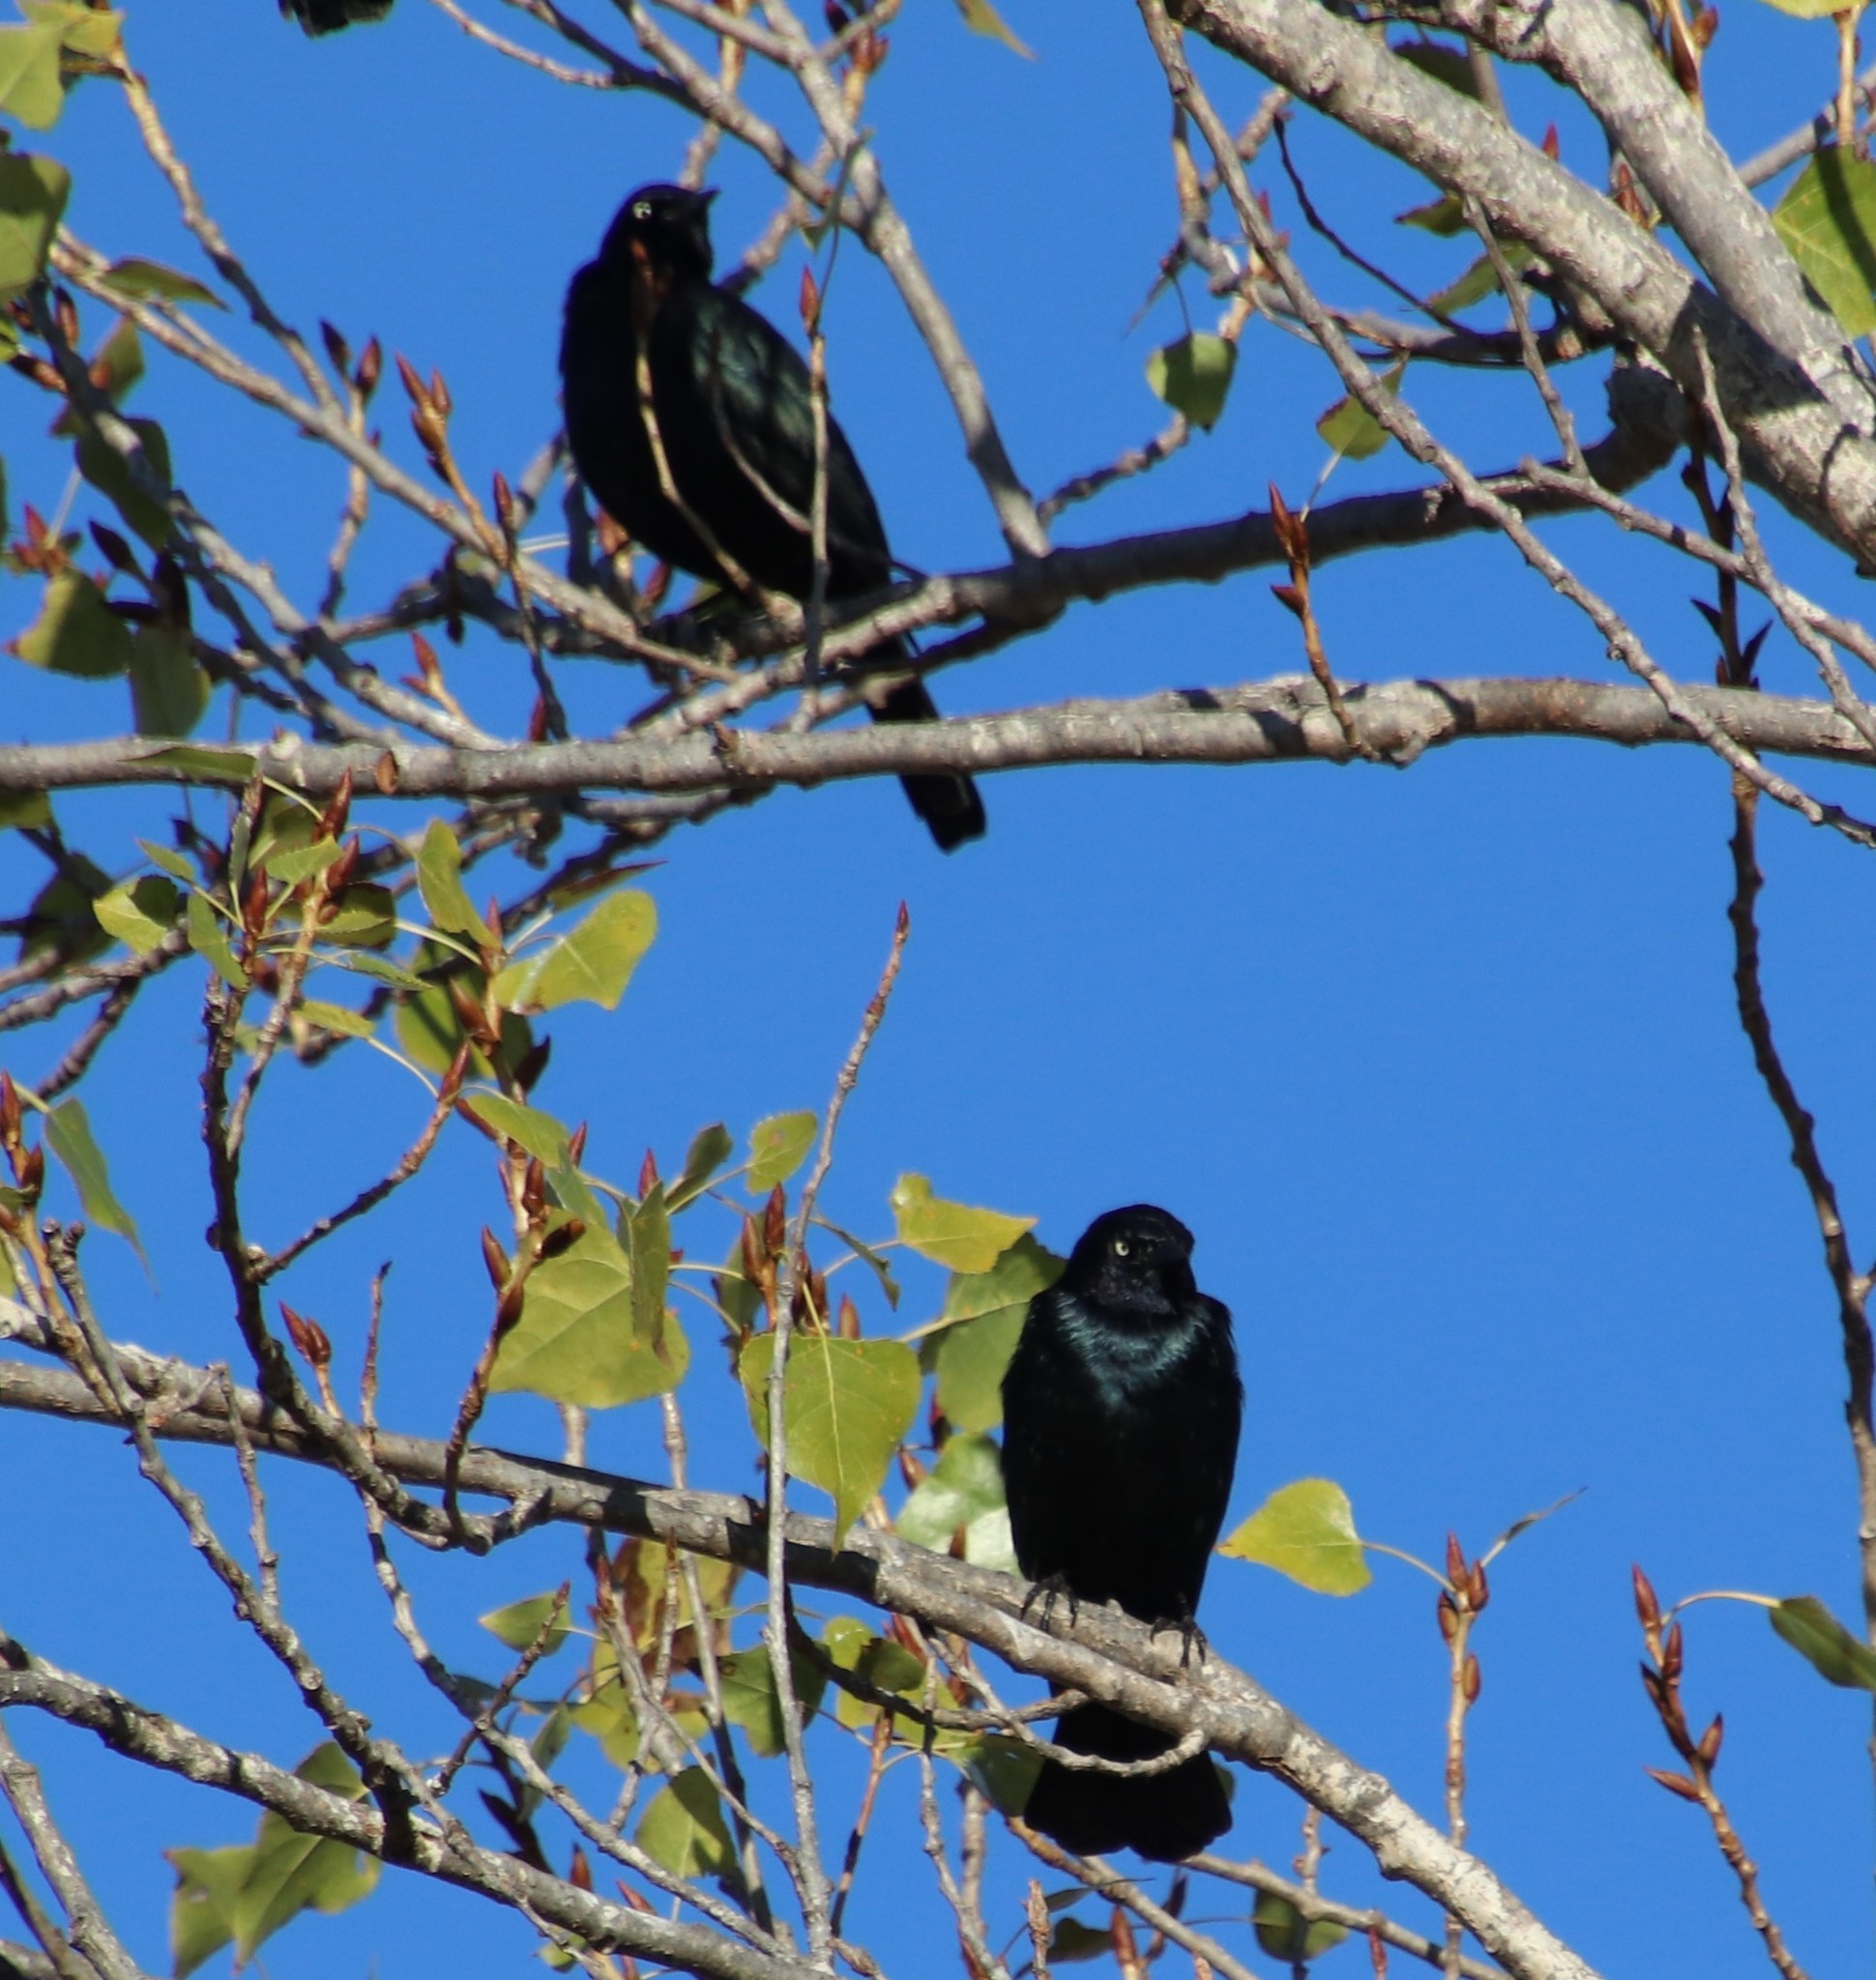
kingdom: Animalia
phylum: Chordata
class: Aves
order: Passeriformes
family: Icteridae
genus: Euphagus
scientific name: Euphagus cyanocephalus
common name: Brewer's blackbird
